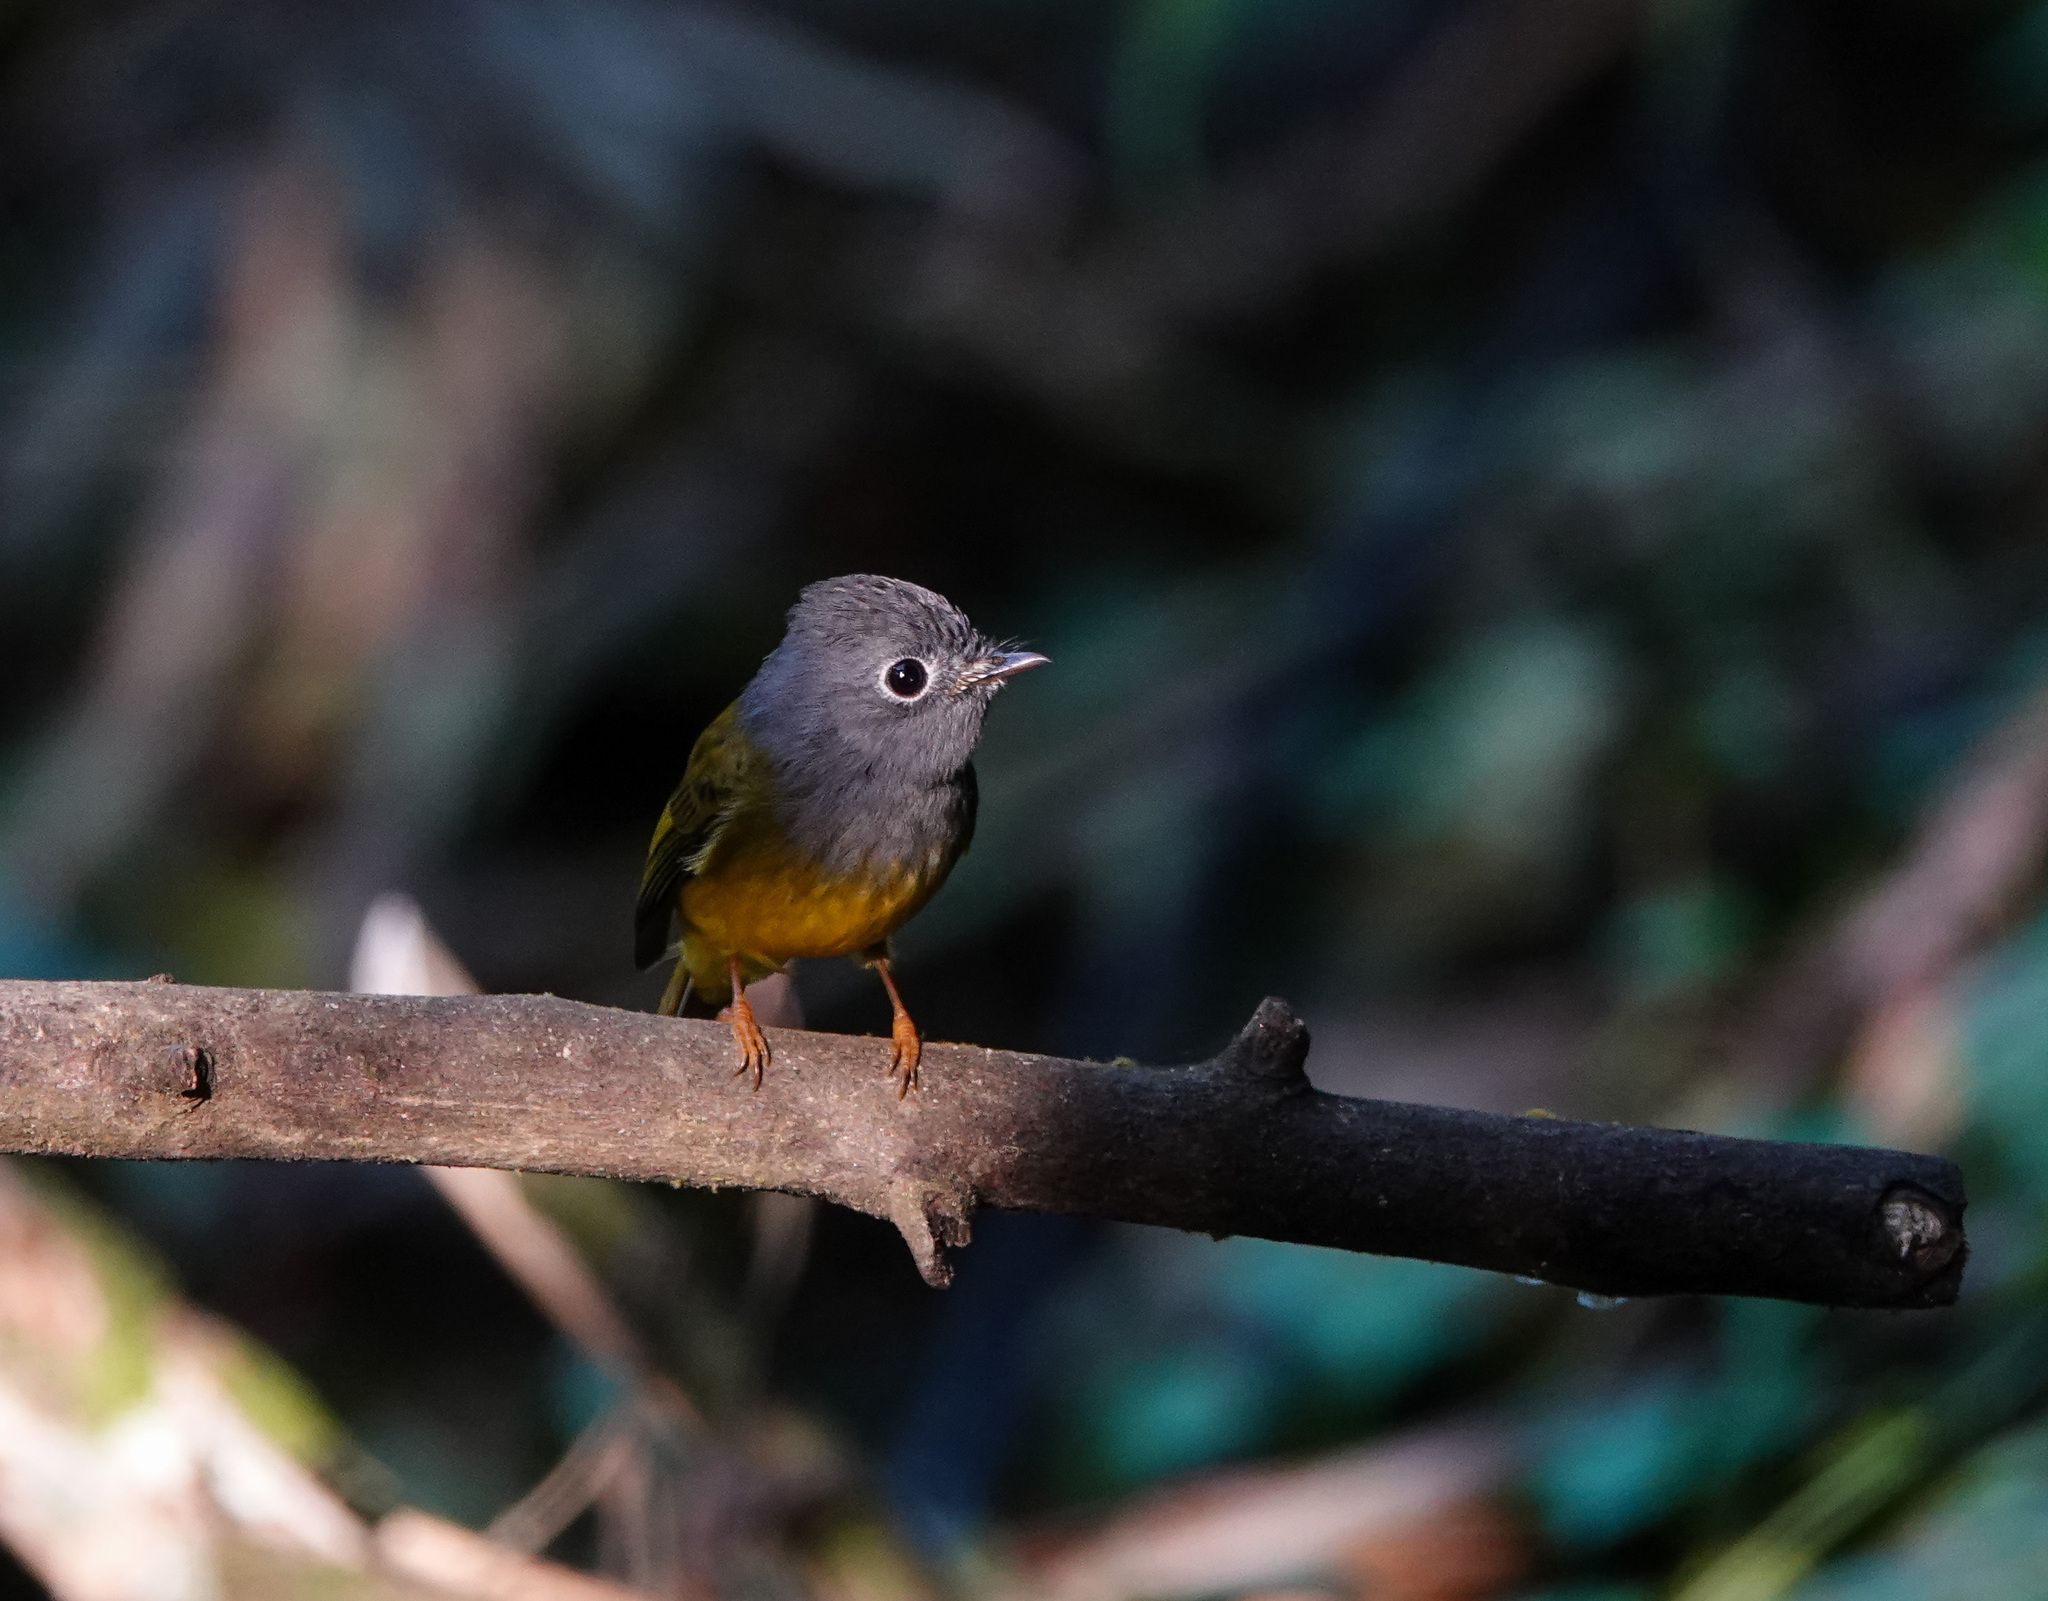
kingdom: Animalia
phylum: Chordata
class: Aves
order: Passeriformes
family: Stenostiridae
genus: Culicicapa
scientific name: Culicicapa ceylonensis
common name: Grey-headed canary-flycatcher
